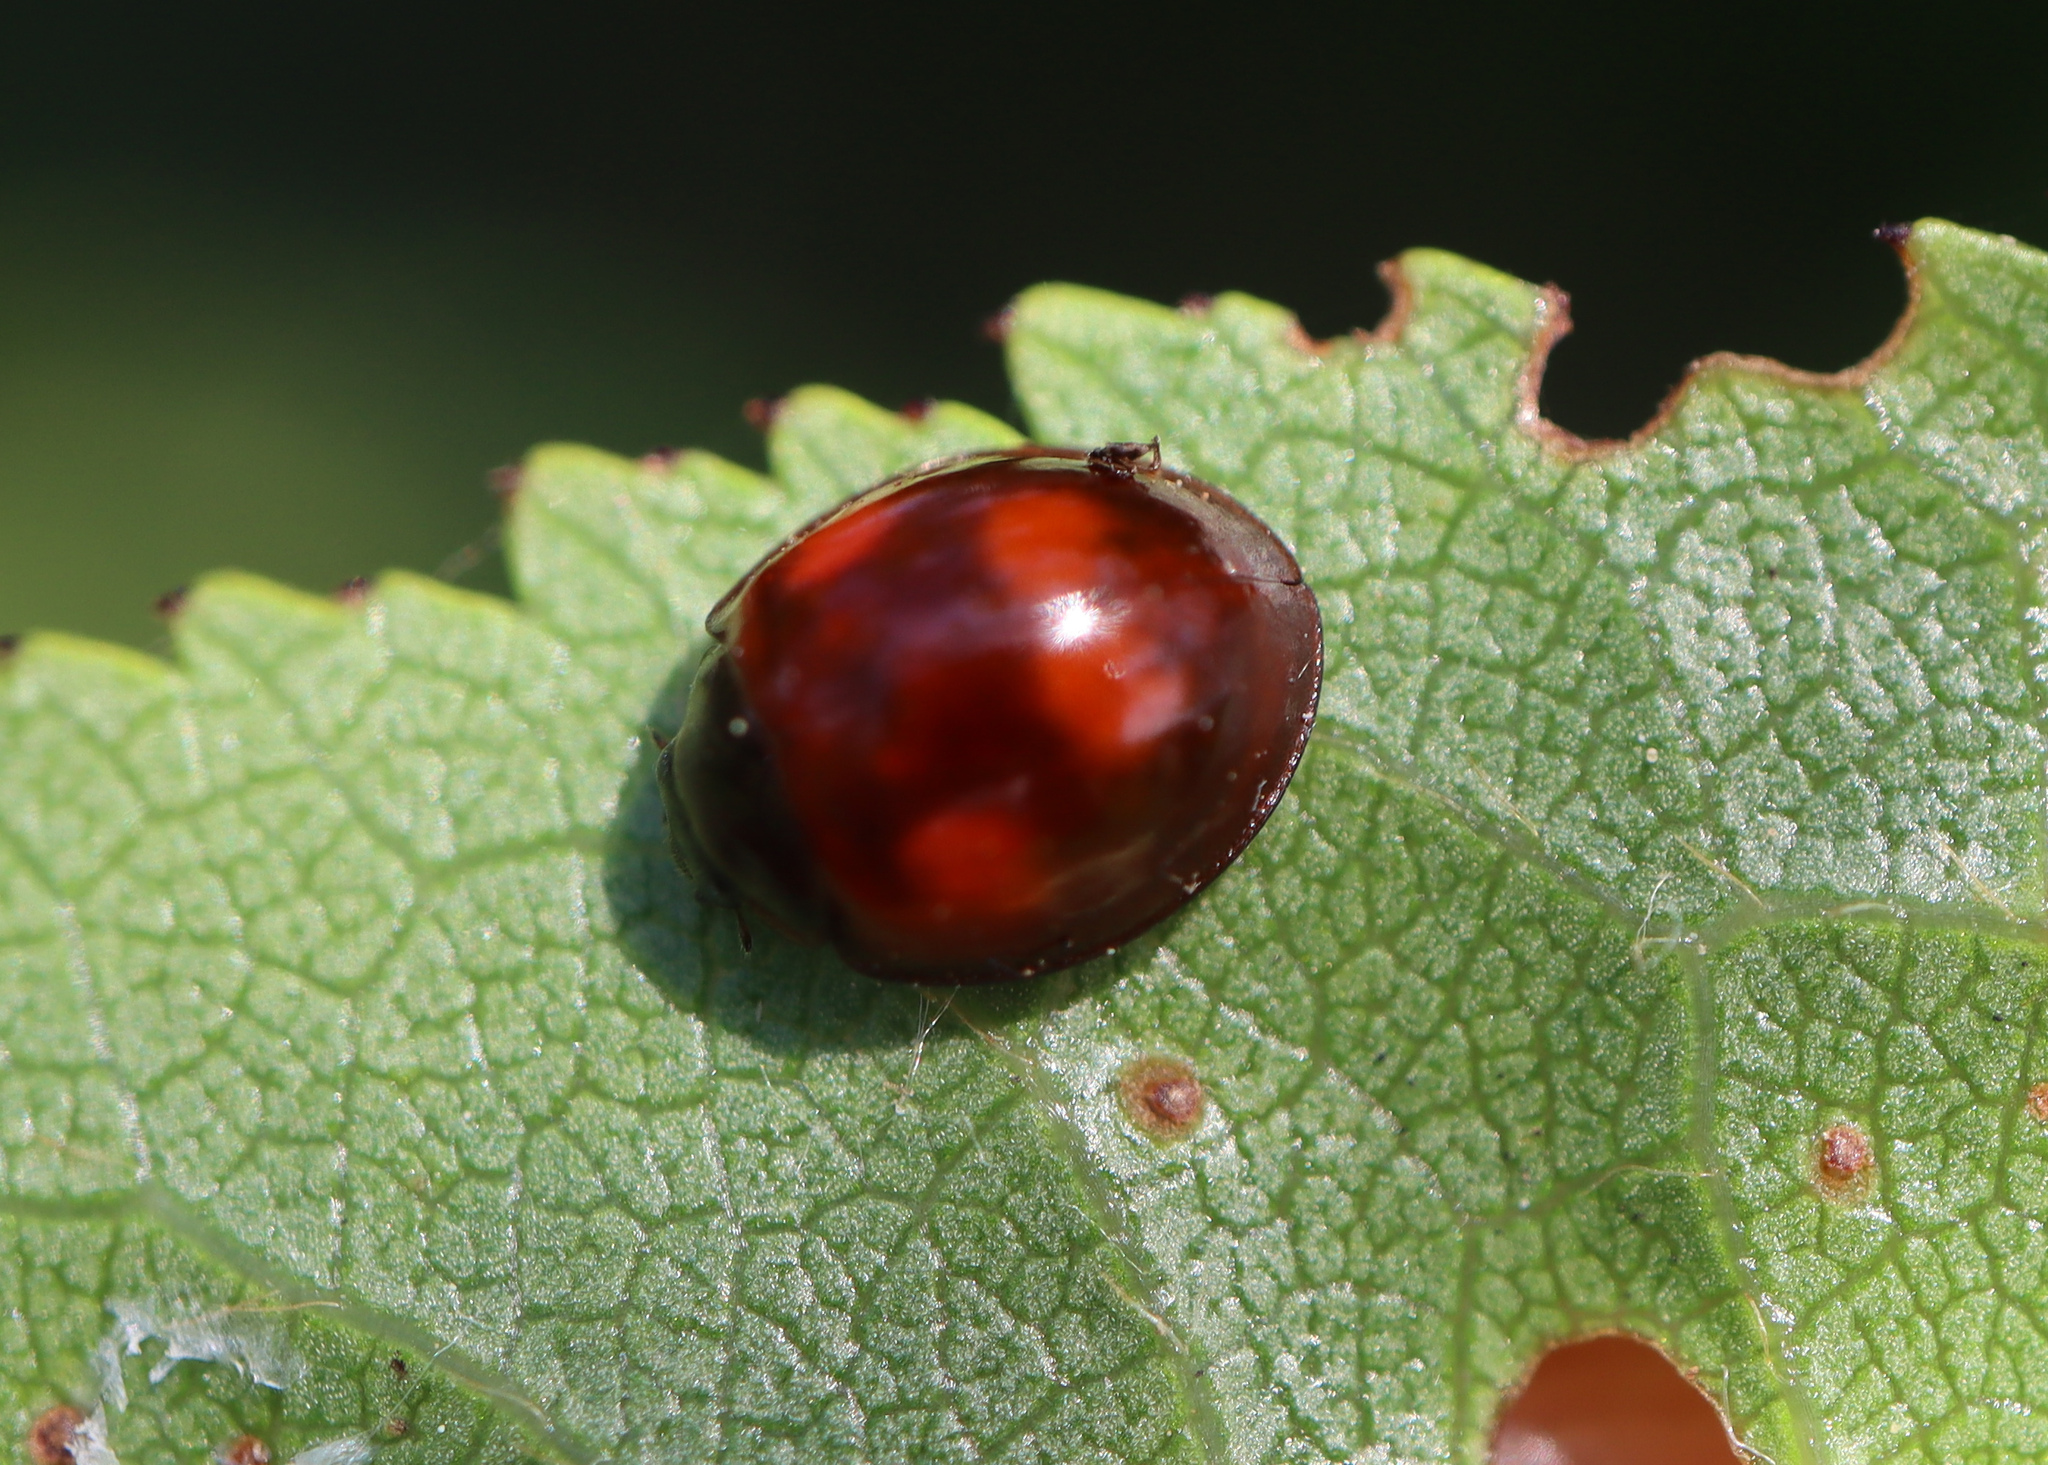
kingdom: Animalia
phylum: Arthropoda
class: Insecta
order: Coleoptera
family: Coccinellidae
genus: Brumus
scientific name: Brumus quadripustulatus
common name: Ladybird beetle
